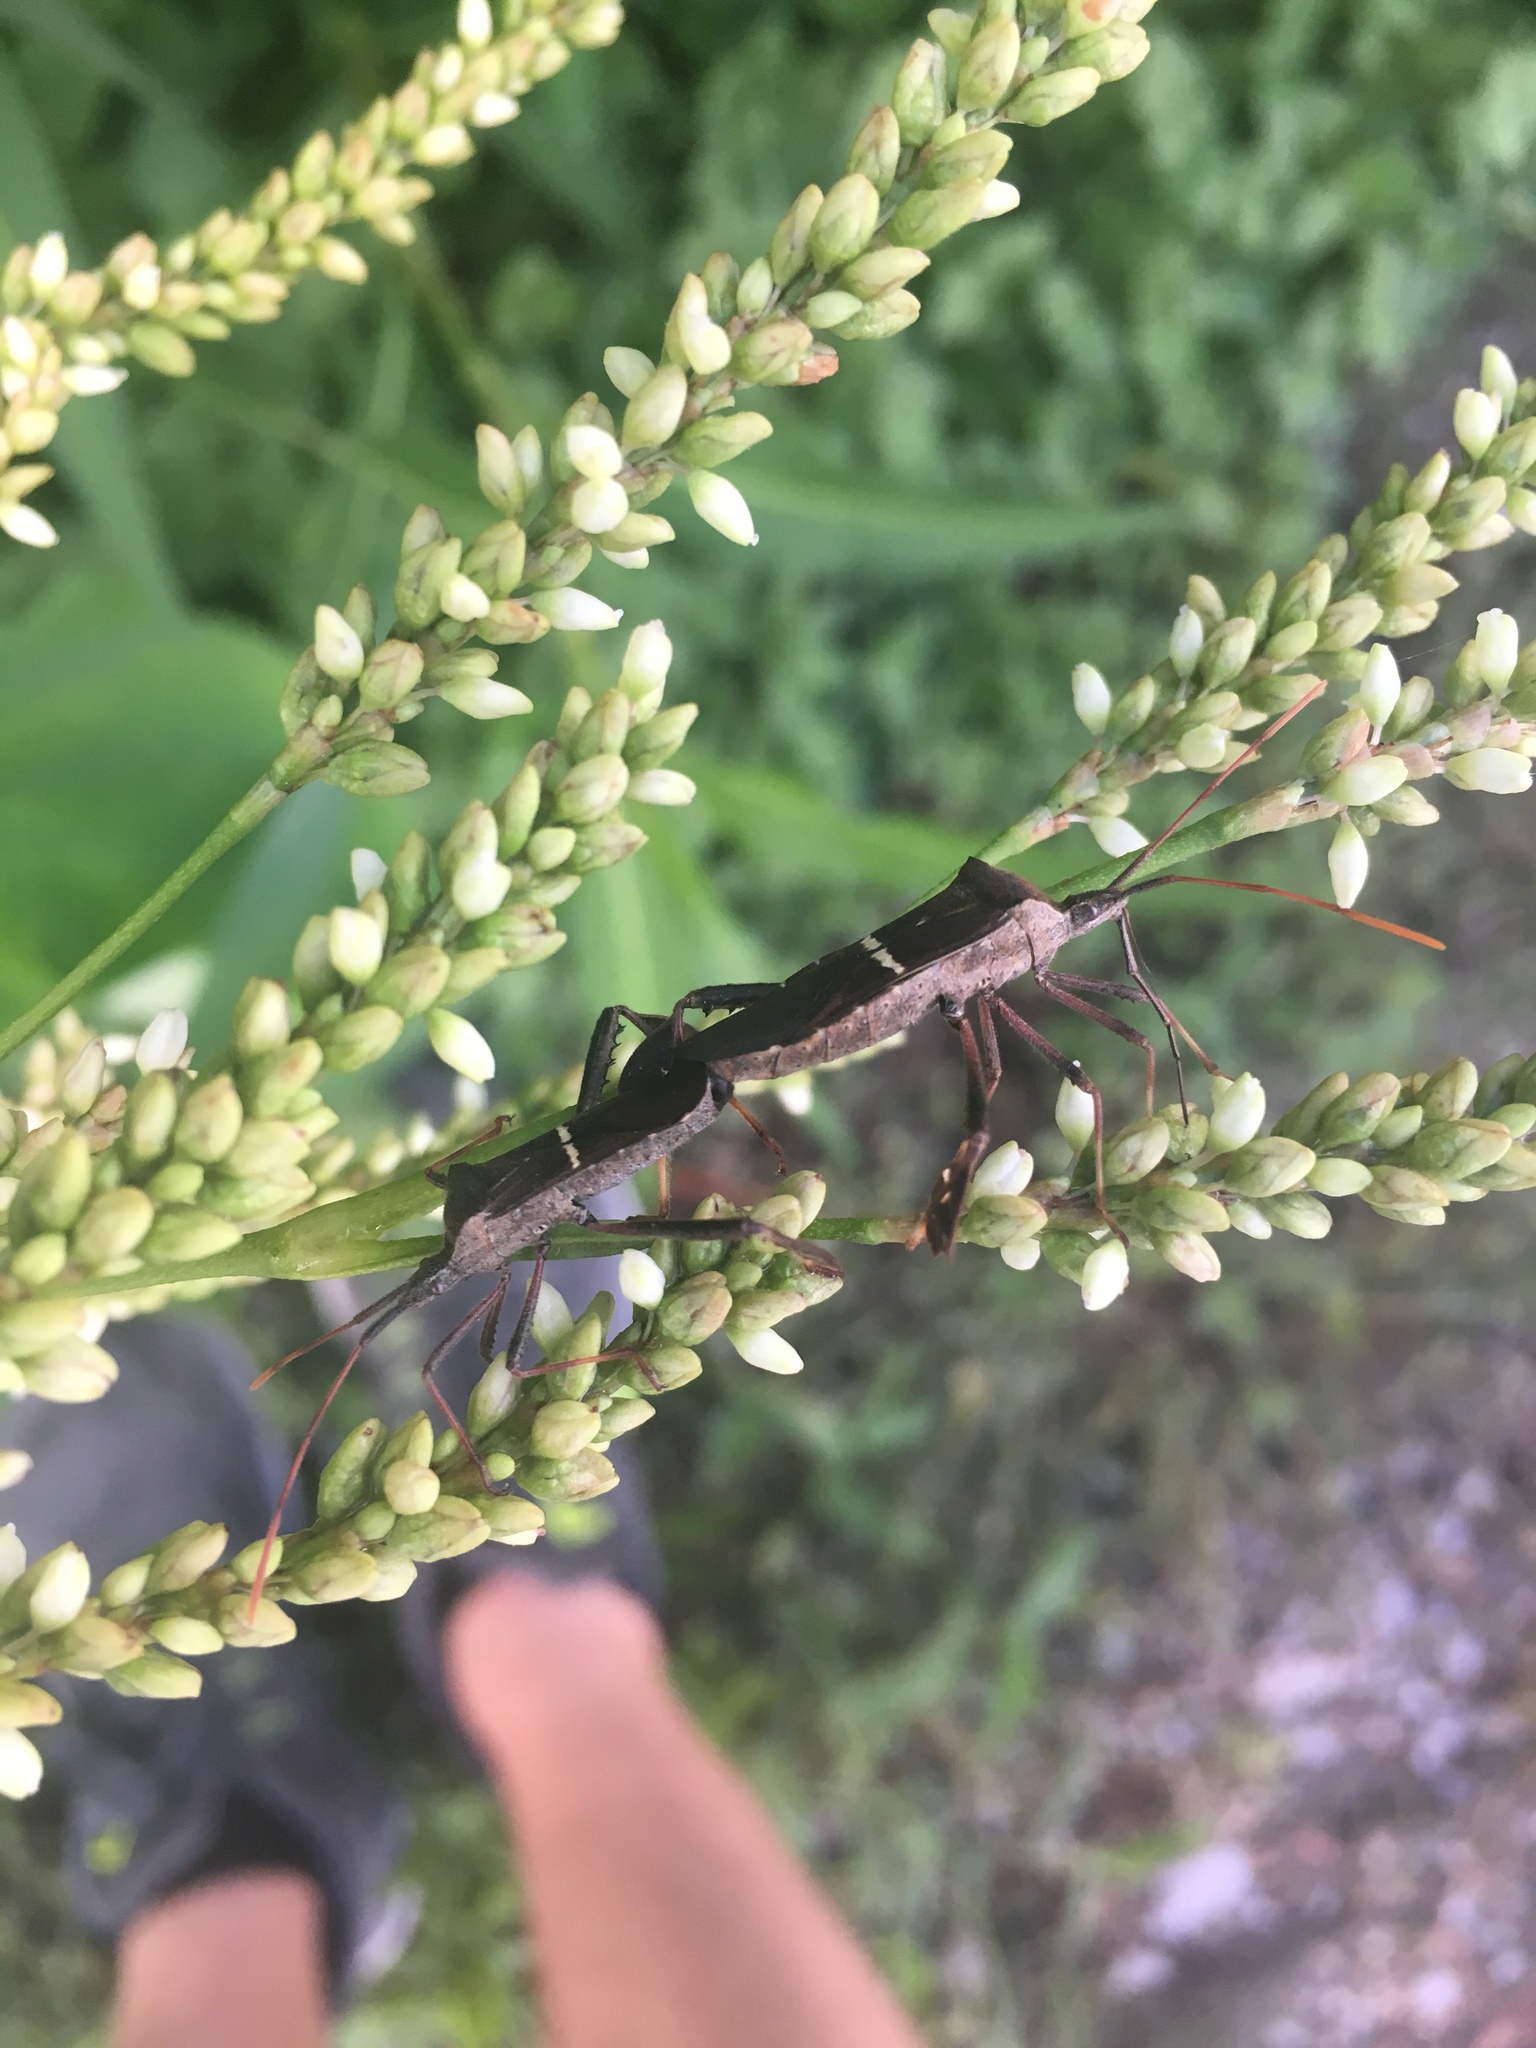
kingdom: Animalia
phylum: Arthropoda
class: Insecta
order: Hemiptera
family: Coreidae
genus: Leptoglossus
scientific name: Leptoglossus phyllopus
